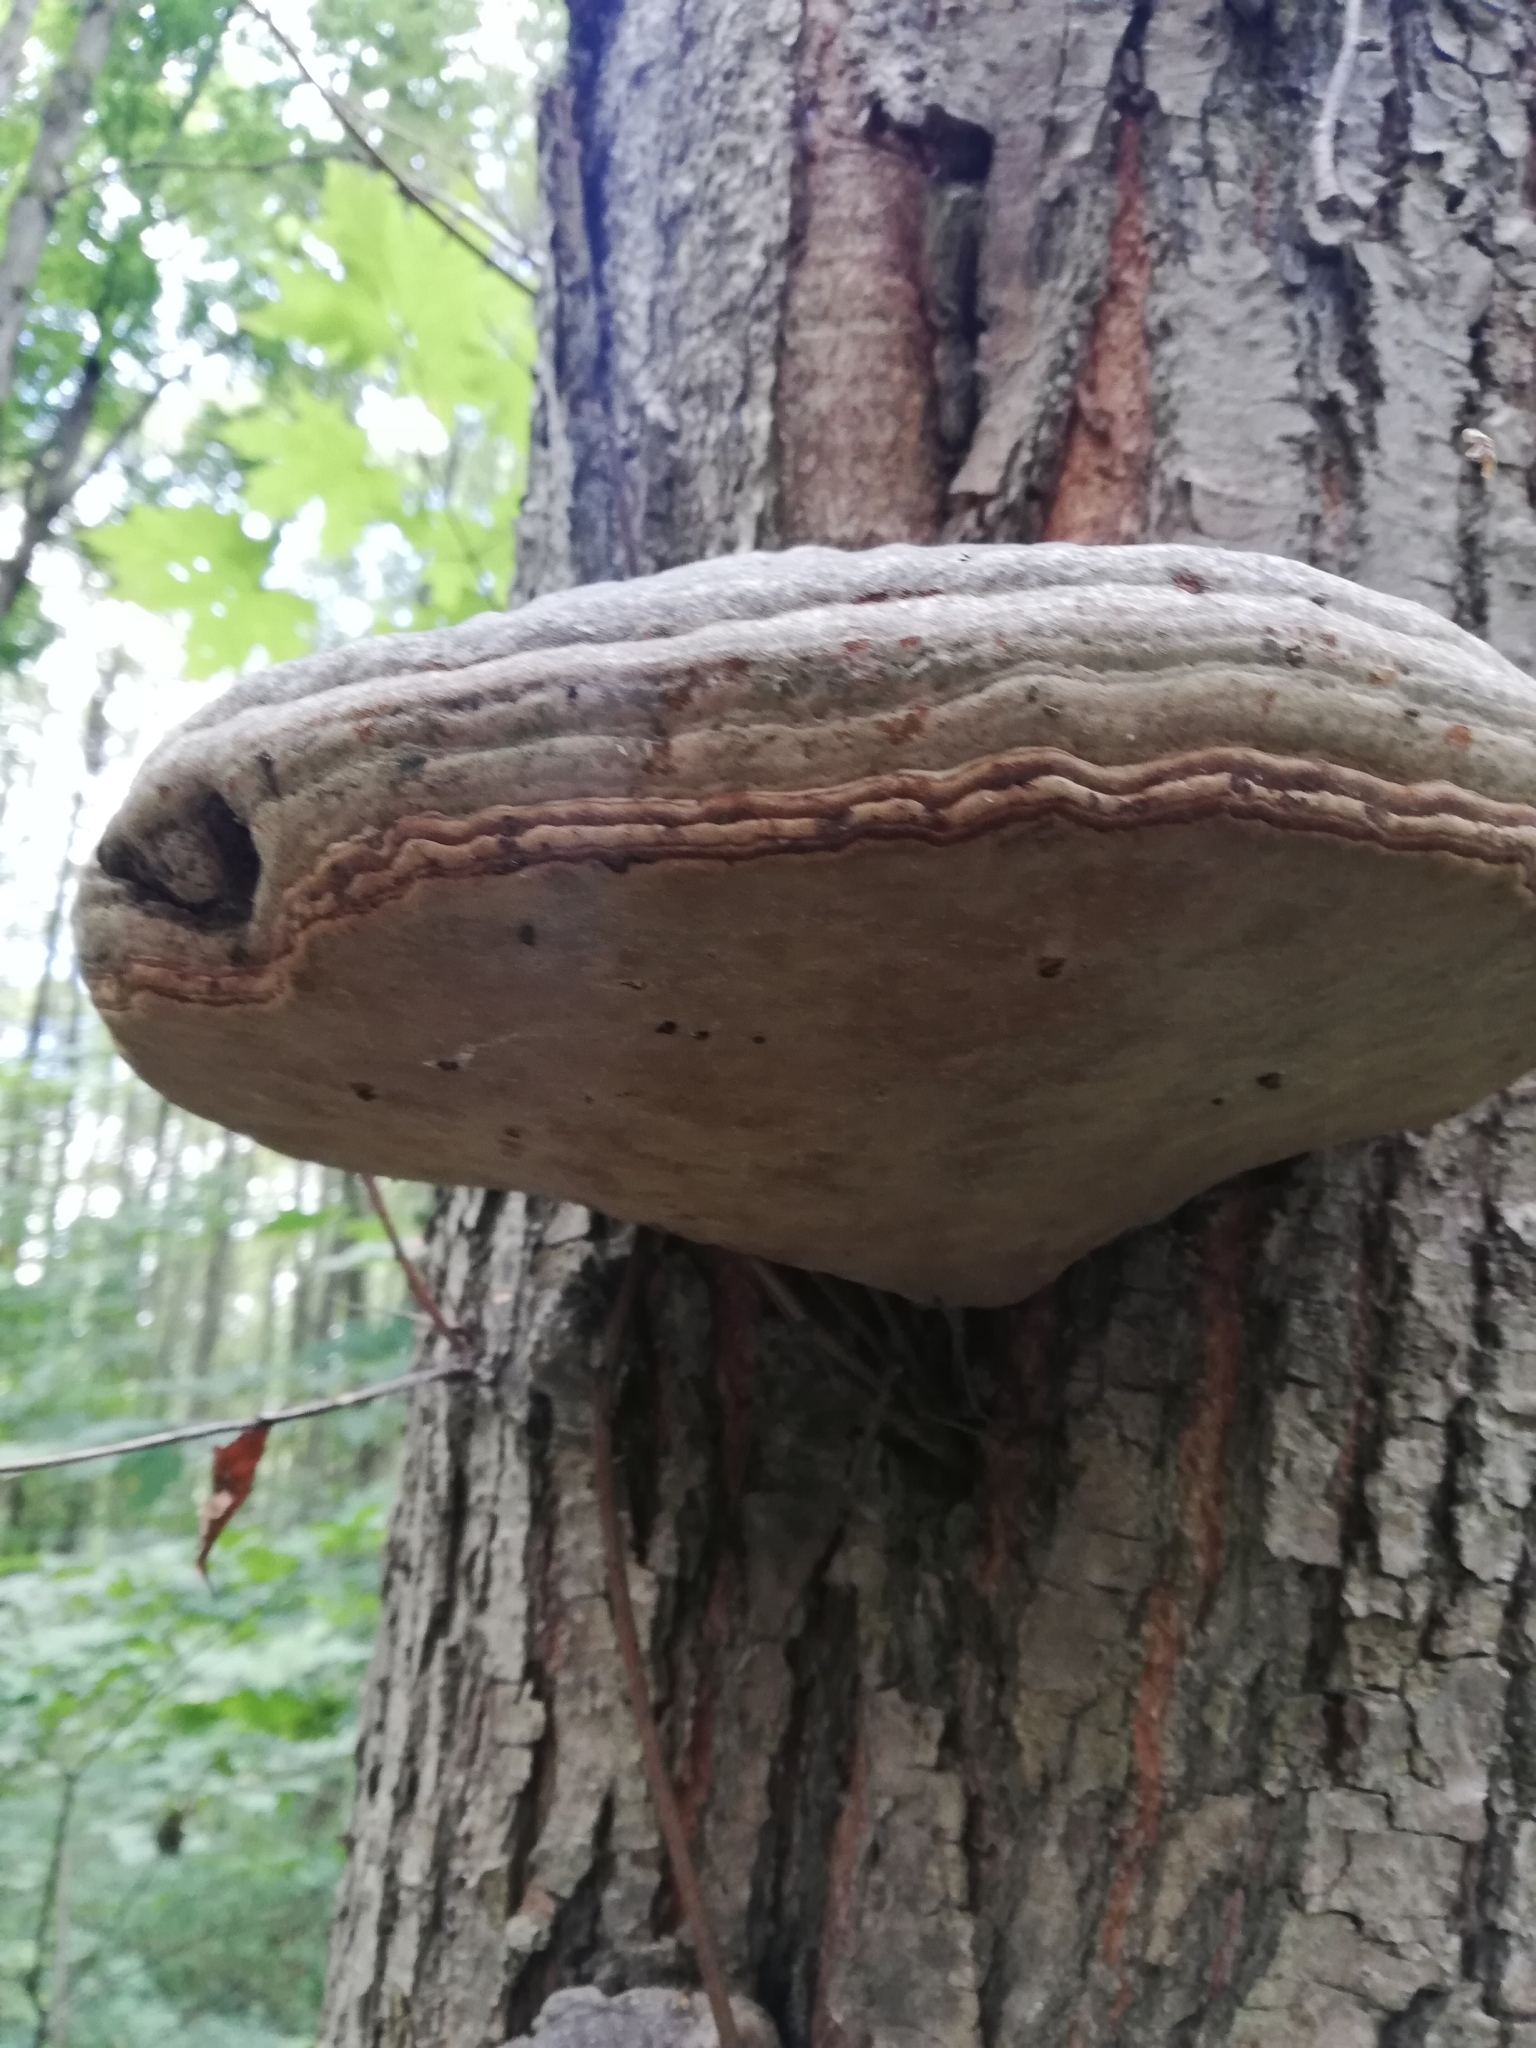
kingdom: Fungi
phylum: Basidiomycota
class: Agaricomycetes
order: Polyporales
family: Polyporaceae
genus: Fomes
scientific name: Fomes fomentarius
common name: Hoof fungus
